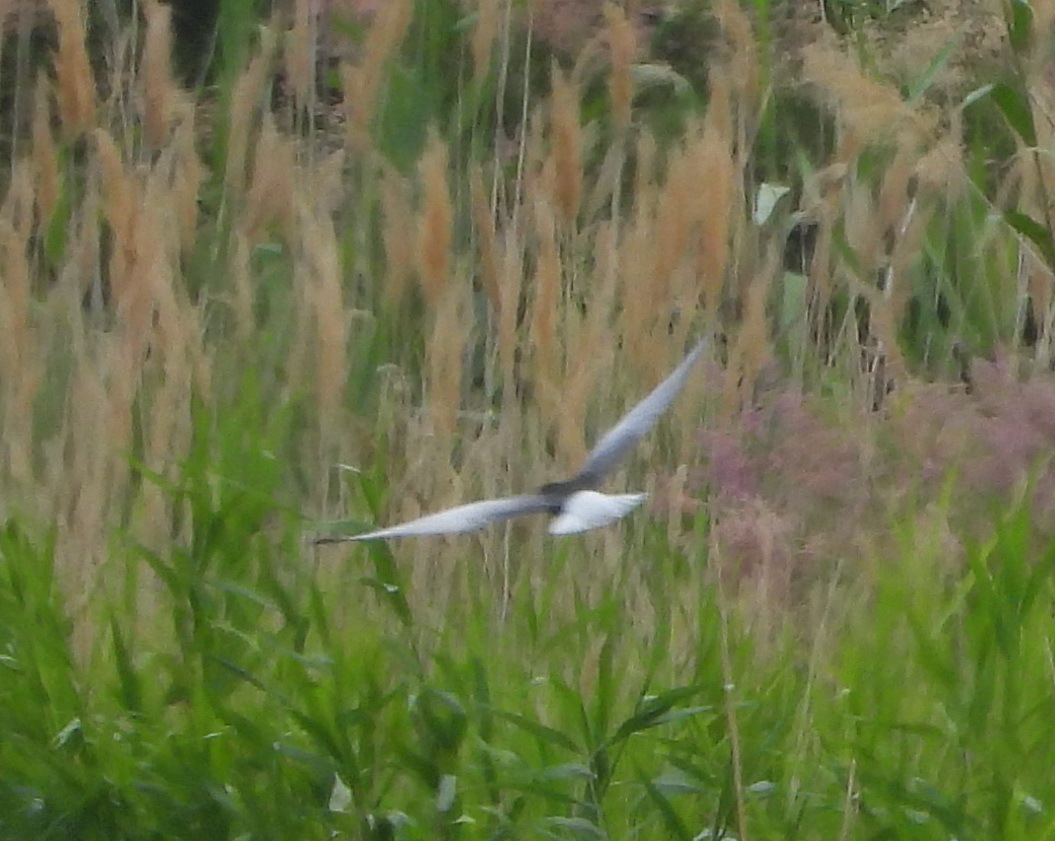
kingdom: Animalia
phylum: Chordata
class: Aves
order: Charadriiformes
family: Laridae
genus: Chlidonias
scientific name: Chlidonias leucopterus
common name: White-winged tern
